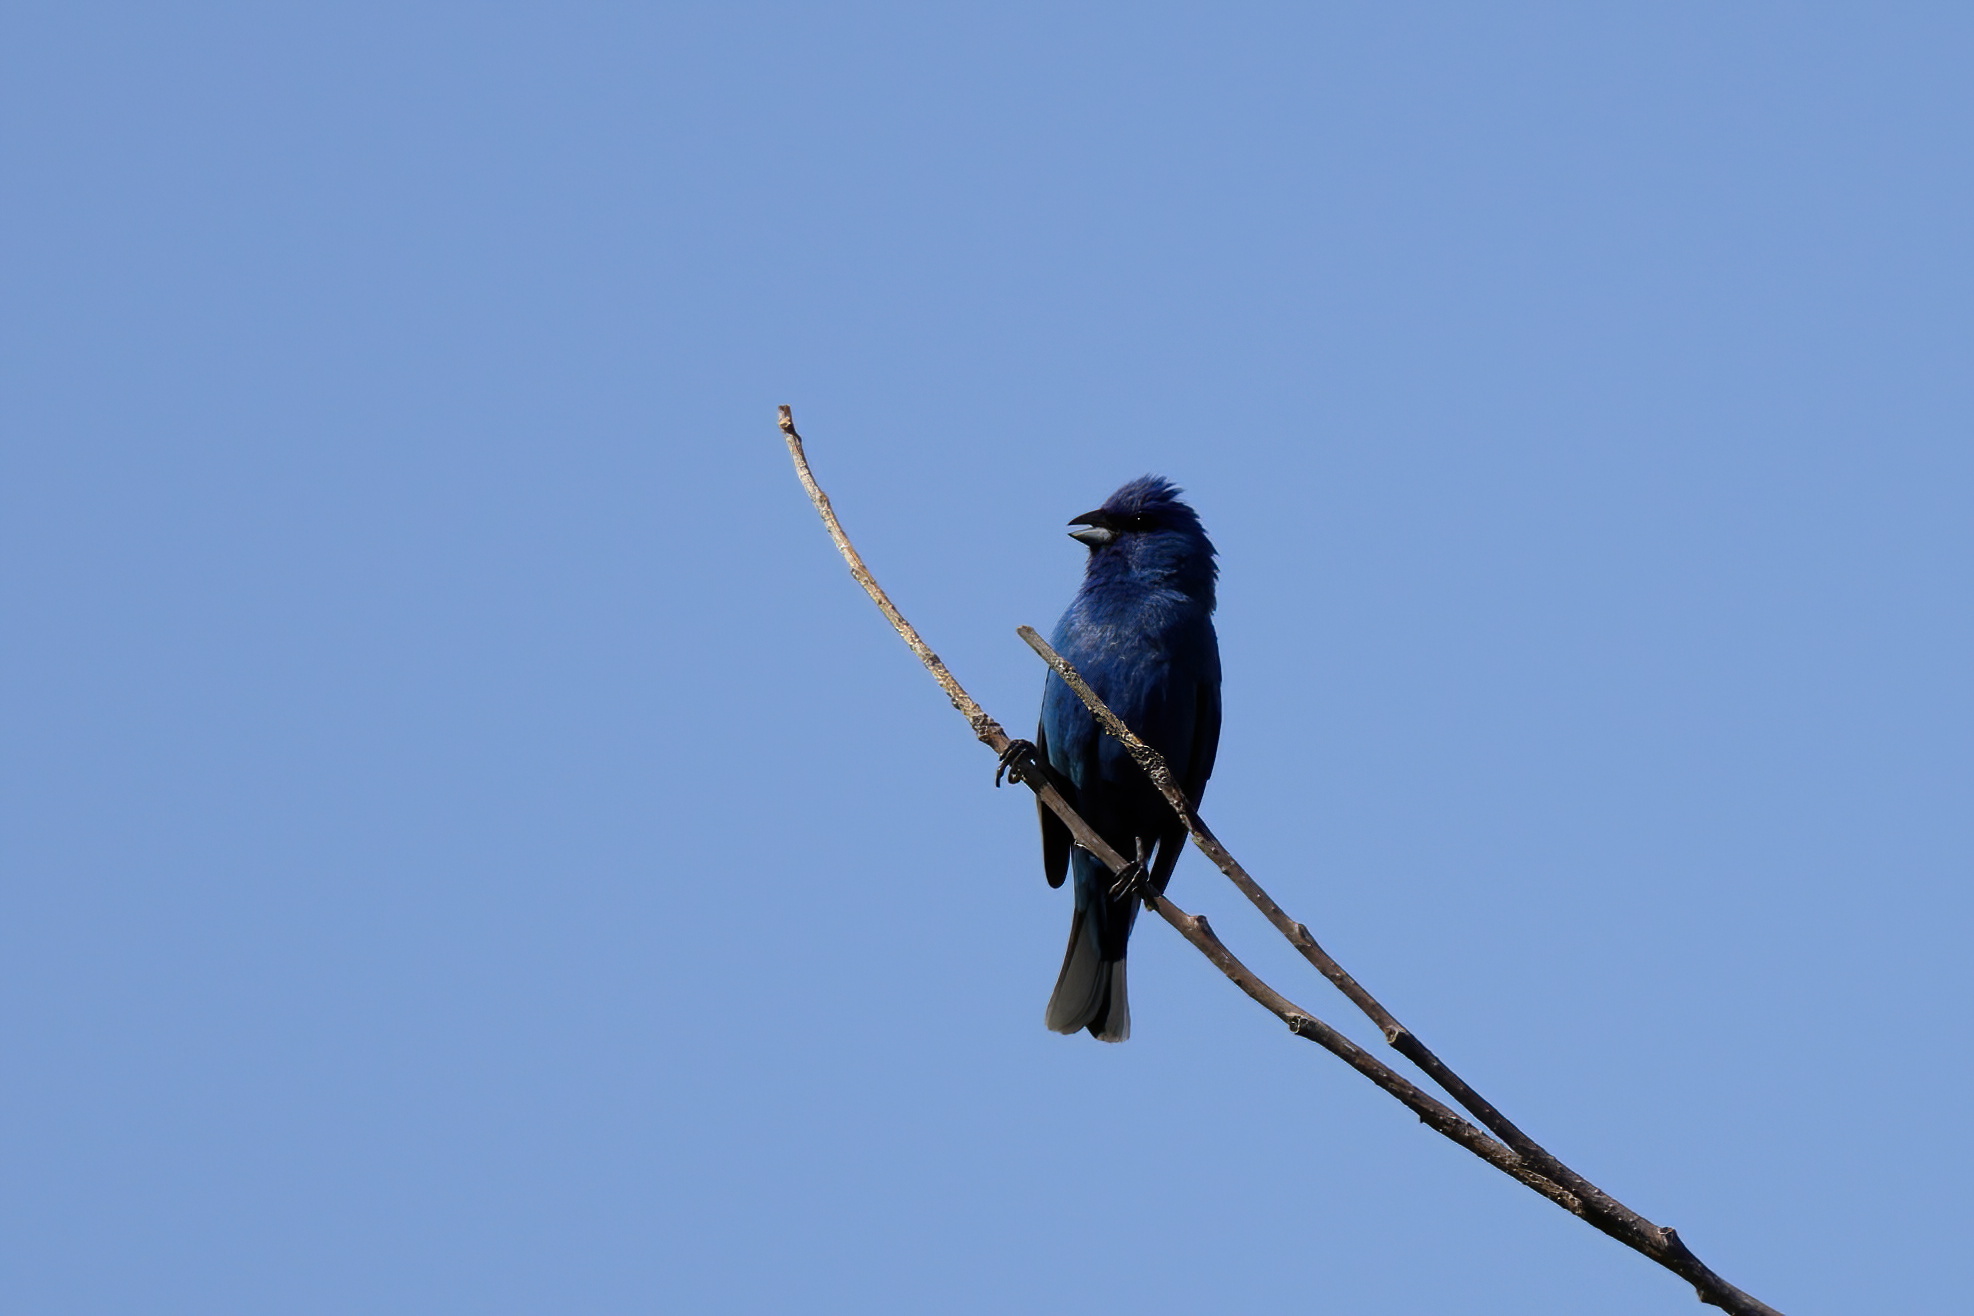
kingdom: Animalia
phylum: Chordata
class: Aves
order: Passeriformes
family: Cardinalidae
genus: Passerina
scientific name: Passerina cyanea
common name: Indigo bunting
